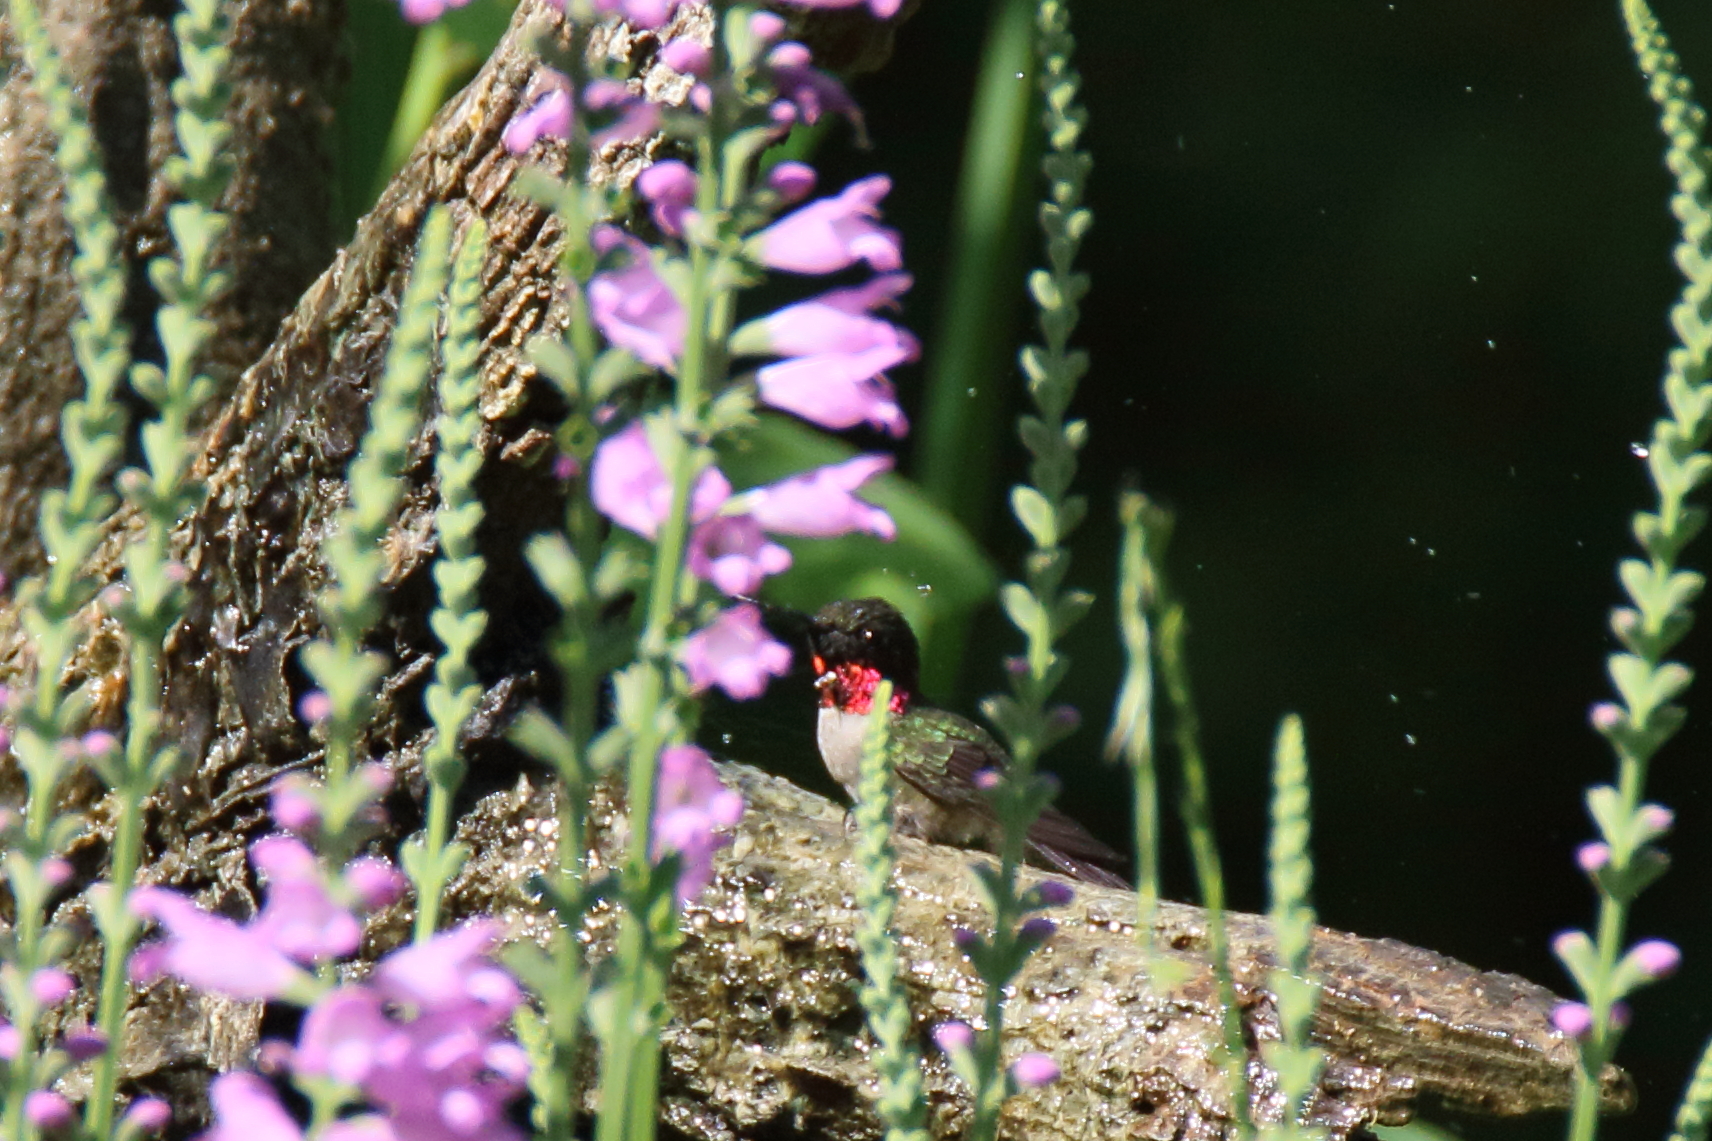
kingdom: Animalia
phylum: Chordata
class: Aves
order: Apodiformes
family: Trochilidae
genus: Archilochus
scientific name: Archilochus colubris
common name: Ruby-throated hummingbird
